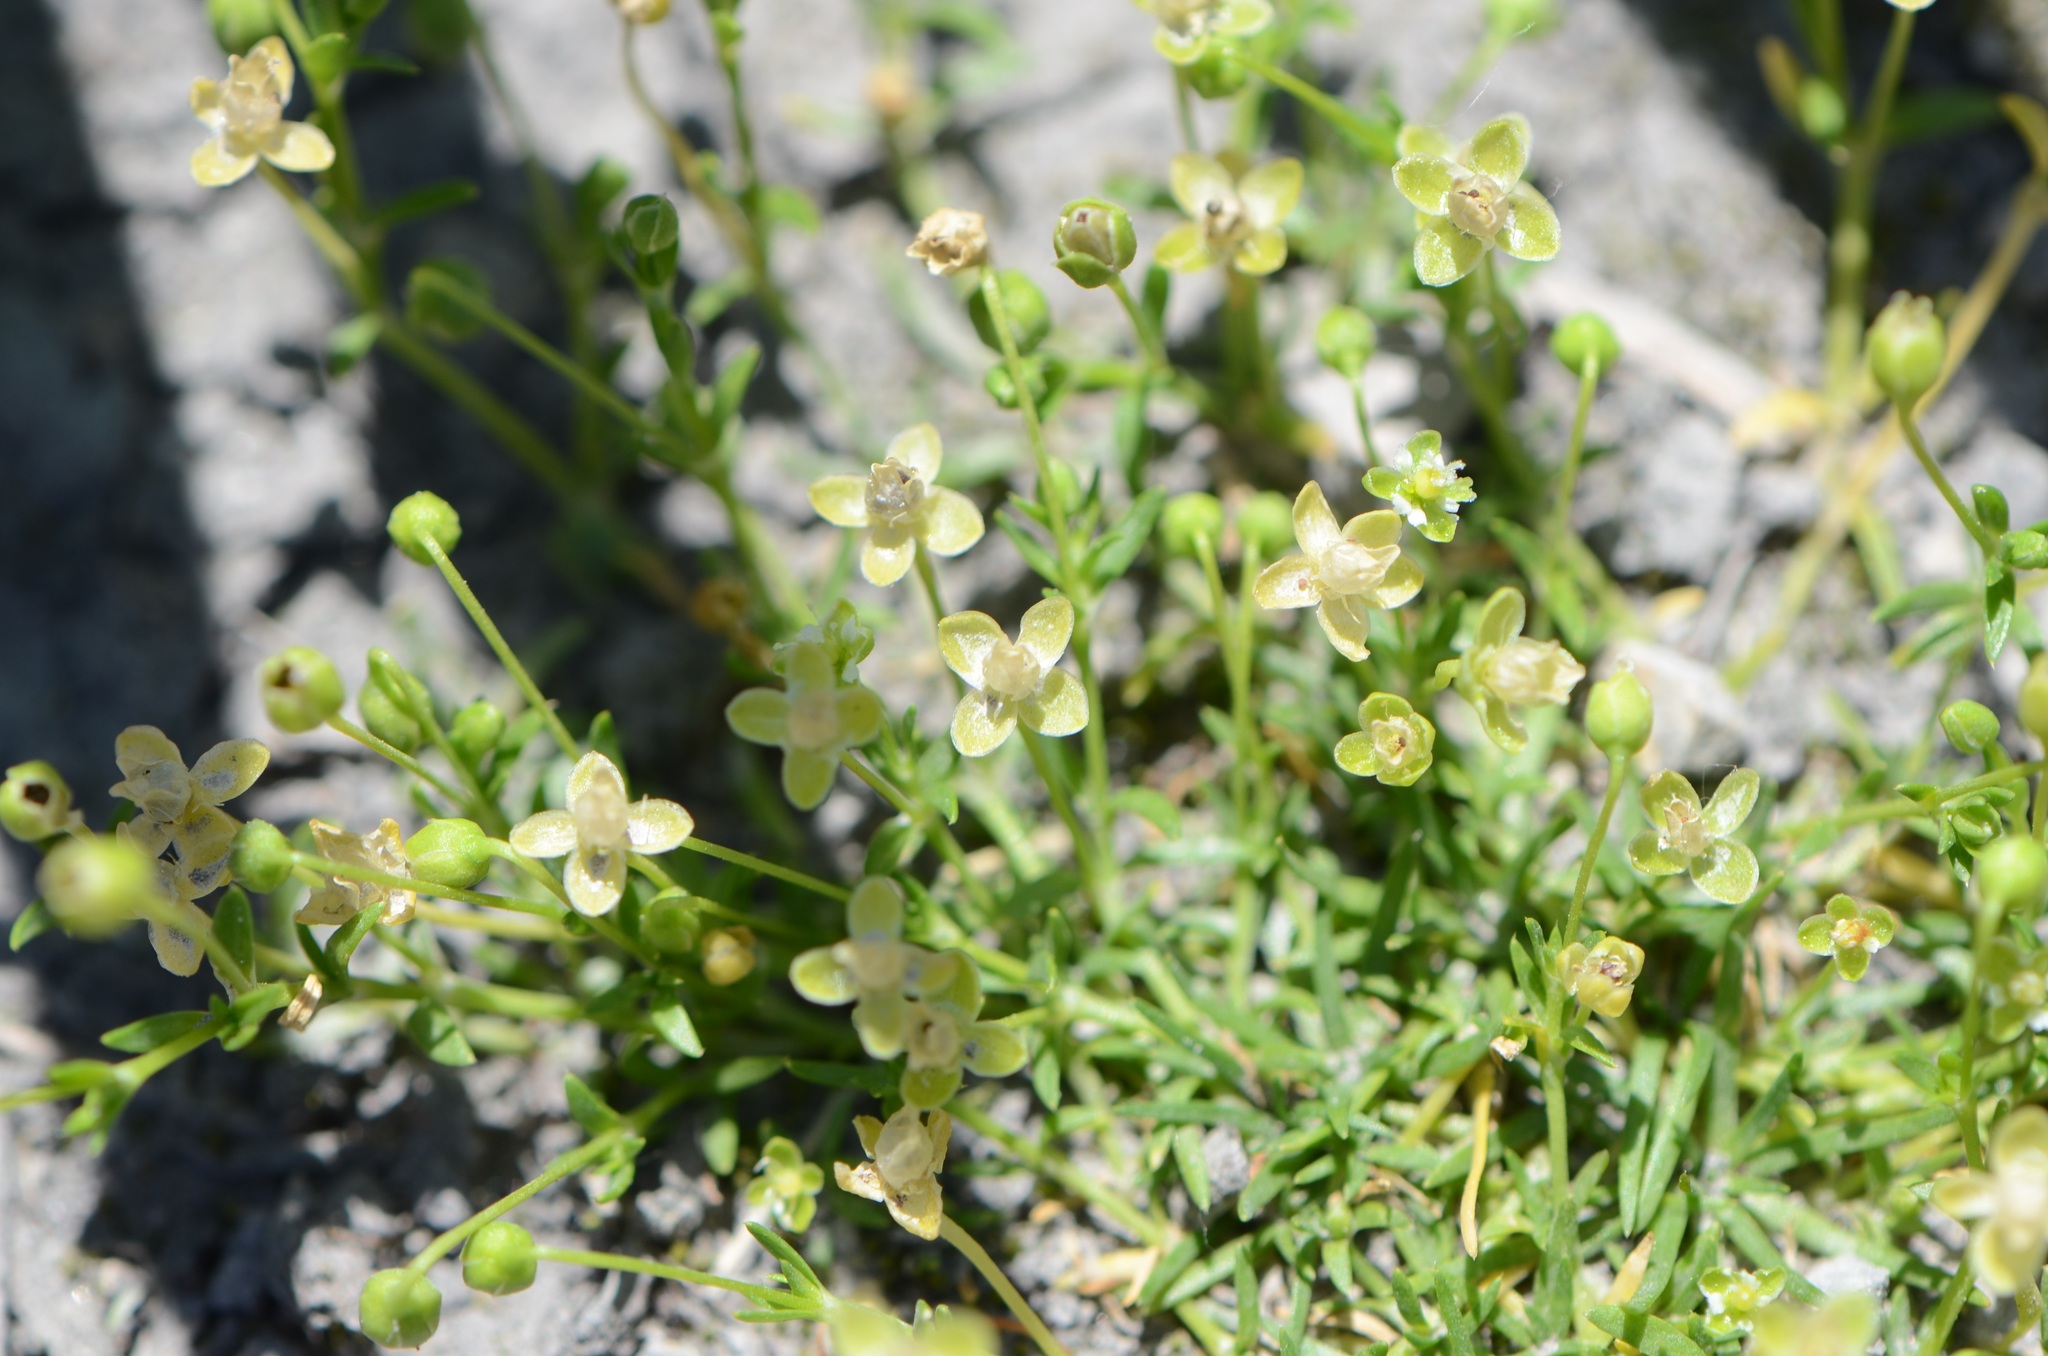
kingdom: Plantae
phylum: Tracheophyta
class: Magnoliopsida
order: Caryophyllales
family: Caryophyllaceae
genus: Sagina
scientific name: Sagina procumbens
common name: Procumbent pearlwort
